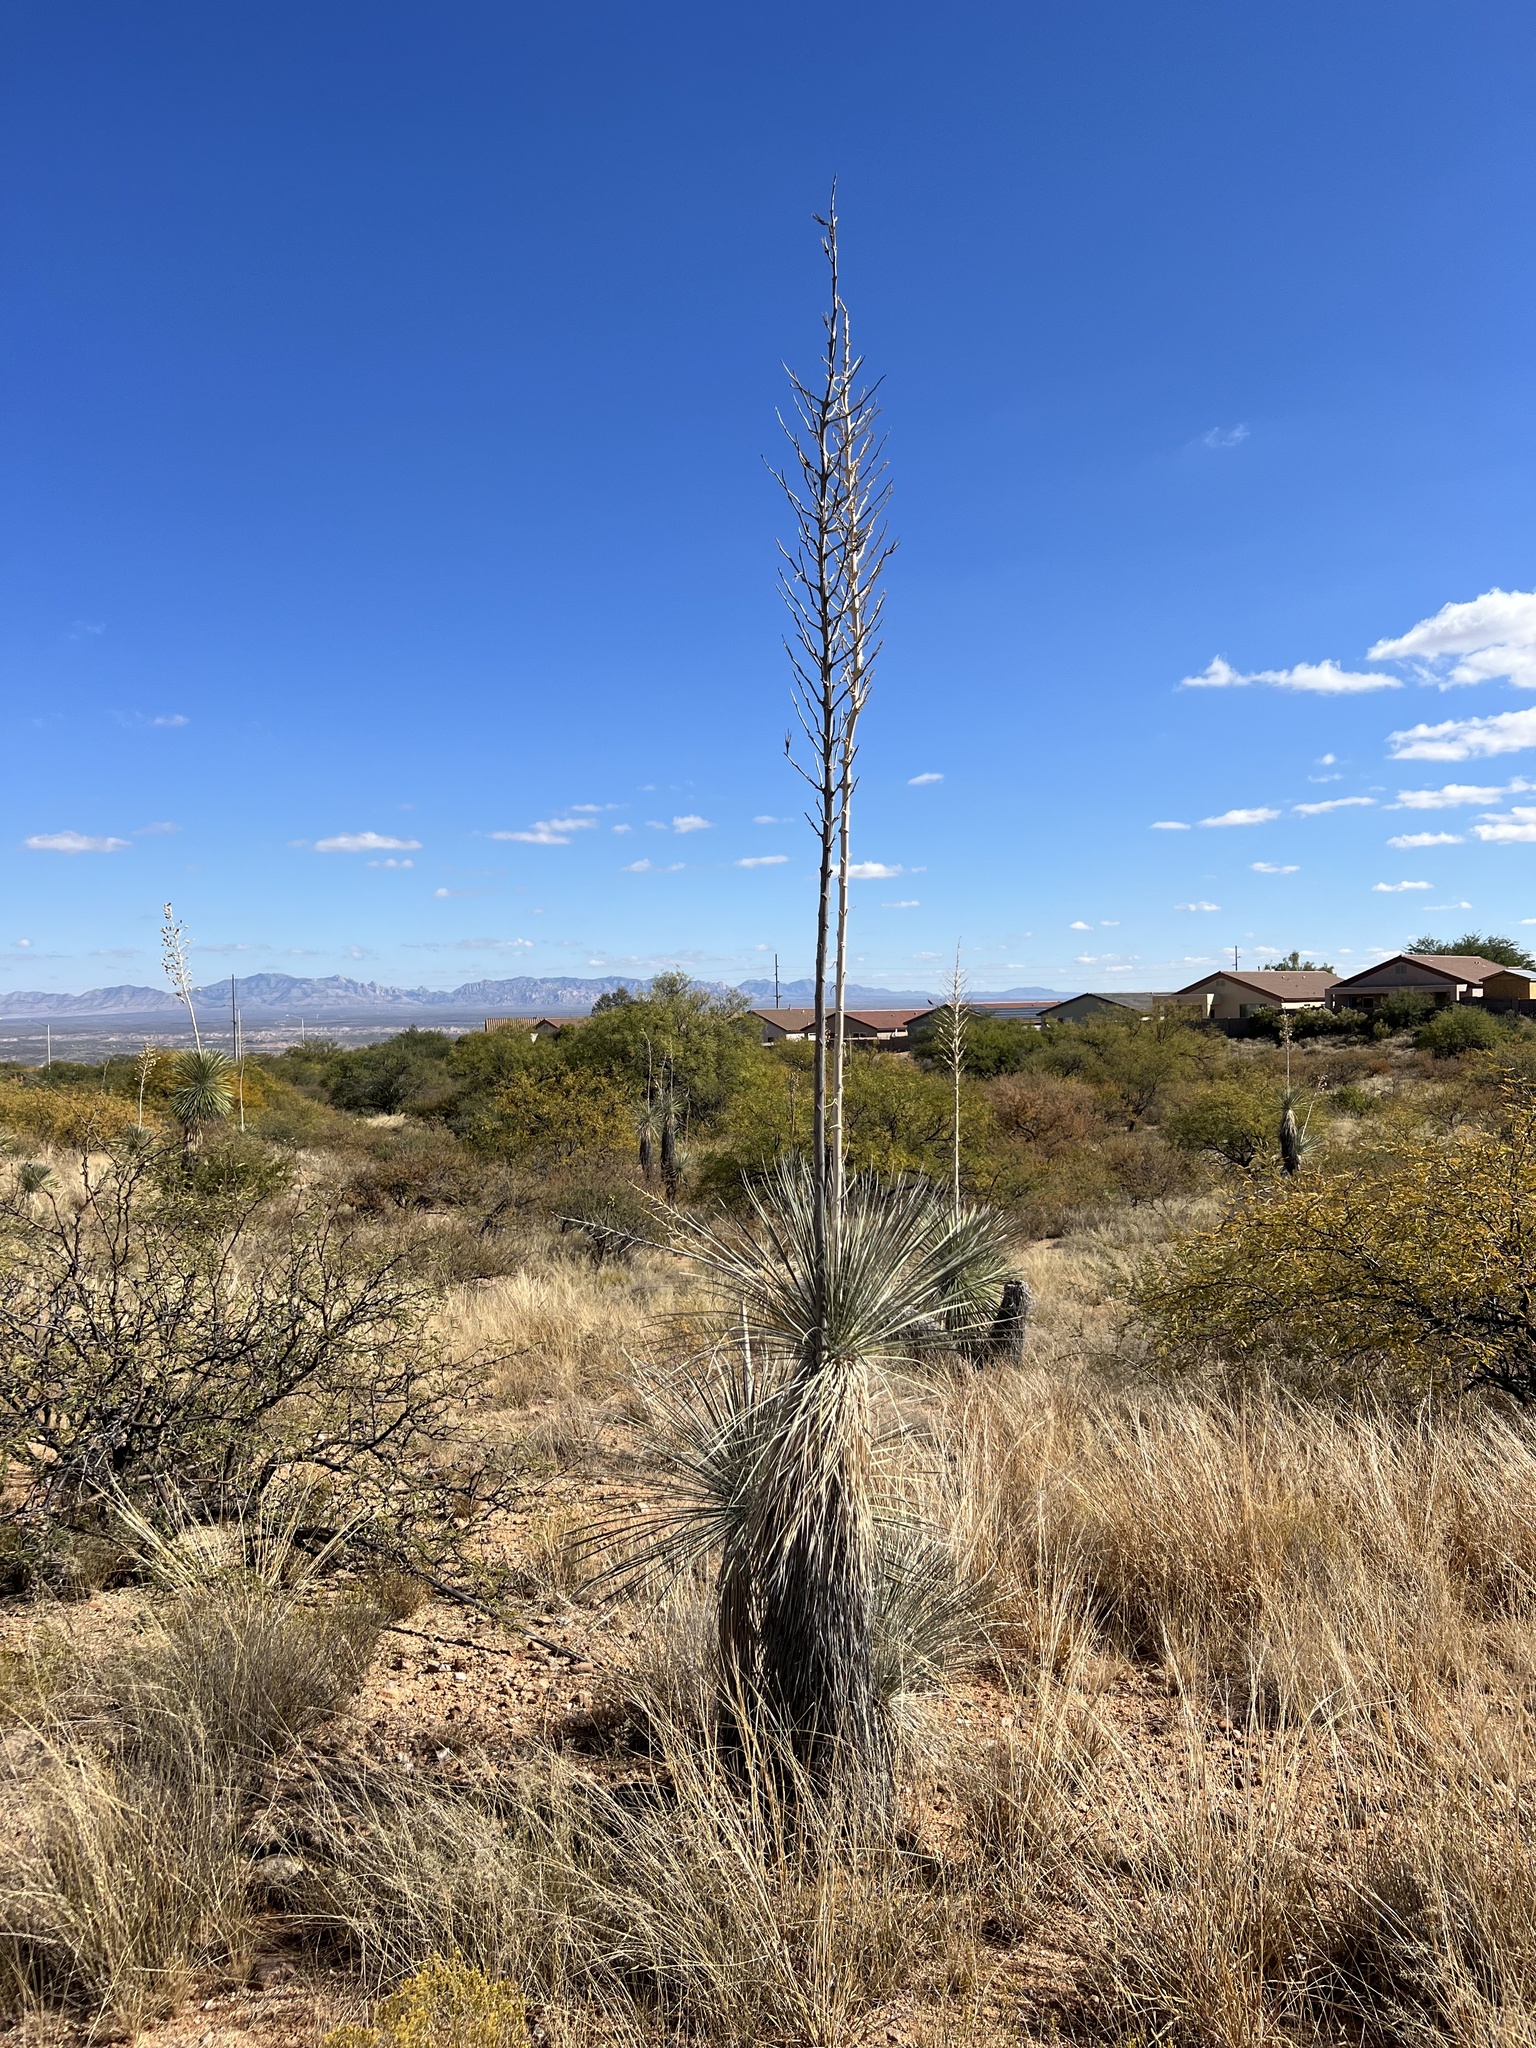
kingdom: Plantae
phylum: Tracheophyta
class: Liliopsida
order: Asparagales
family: Asparagaceae
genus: Yucca
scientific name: Yucca elata
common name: Palmella
